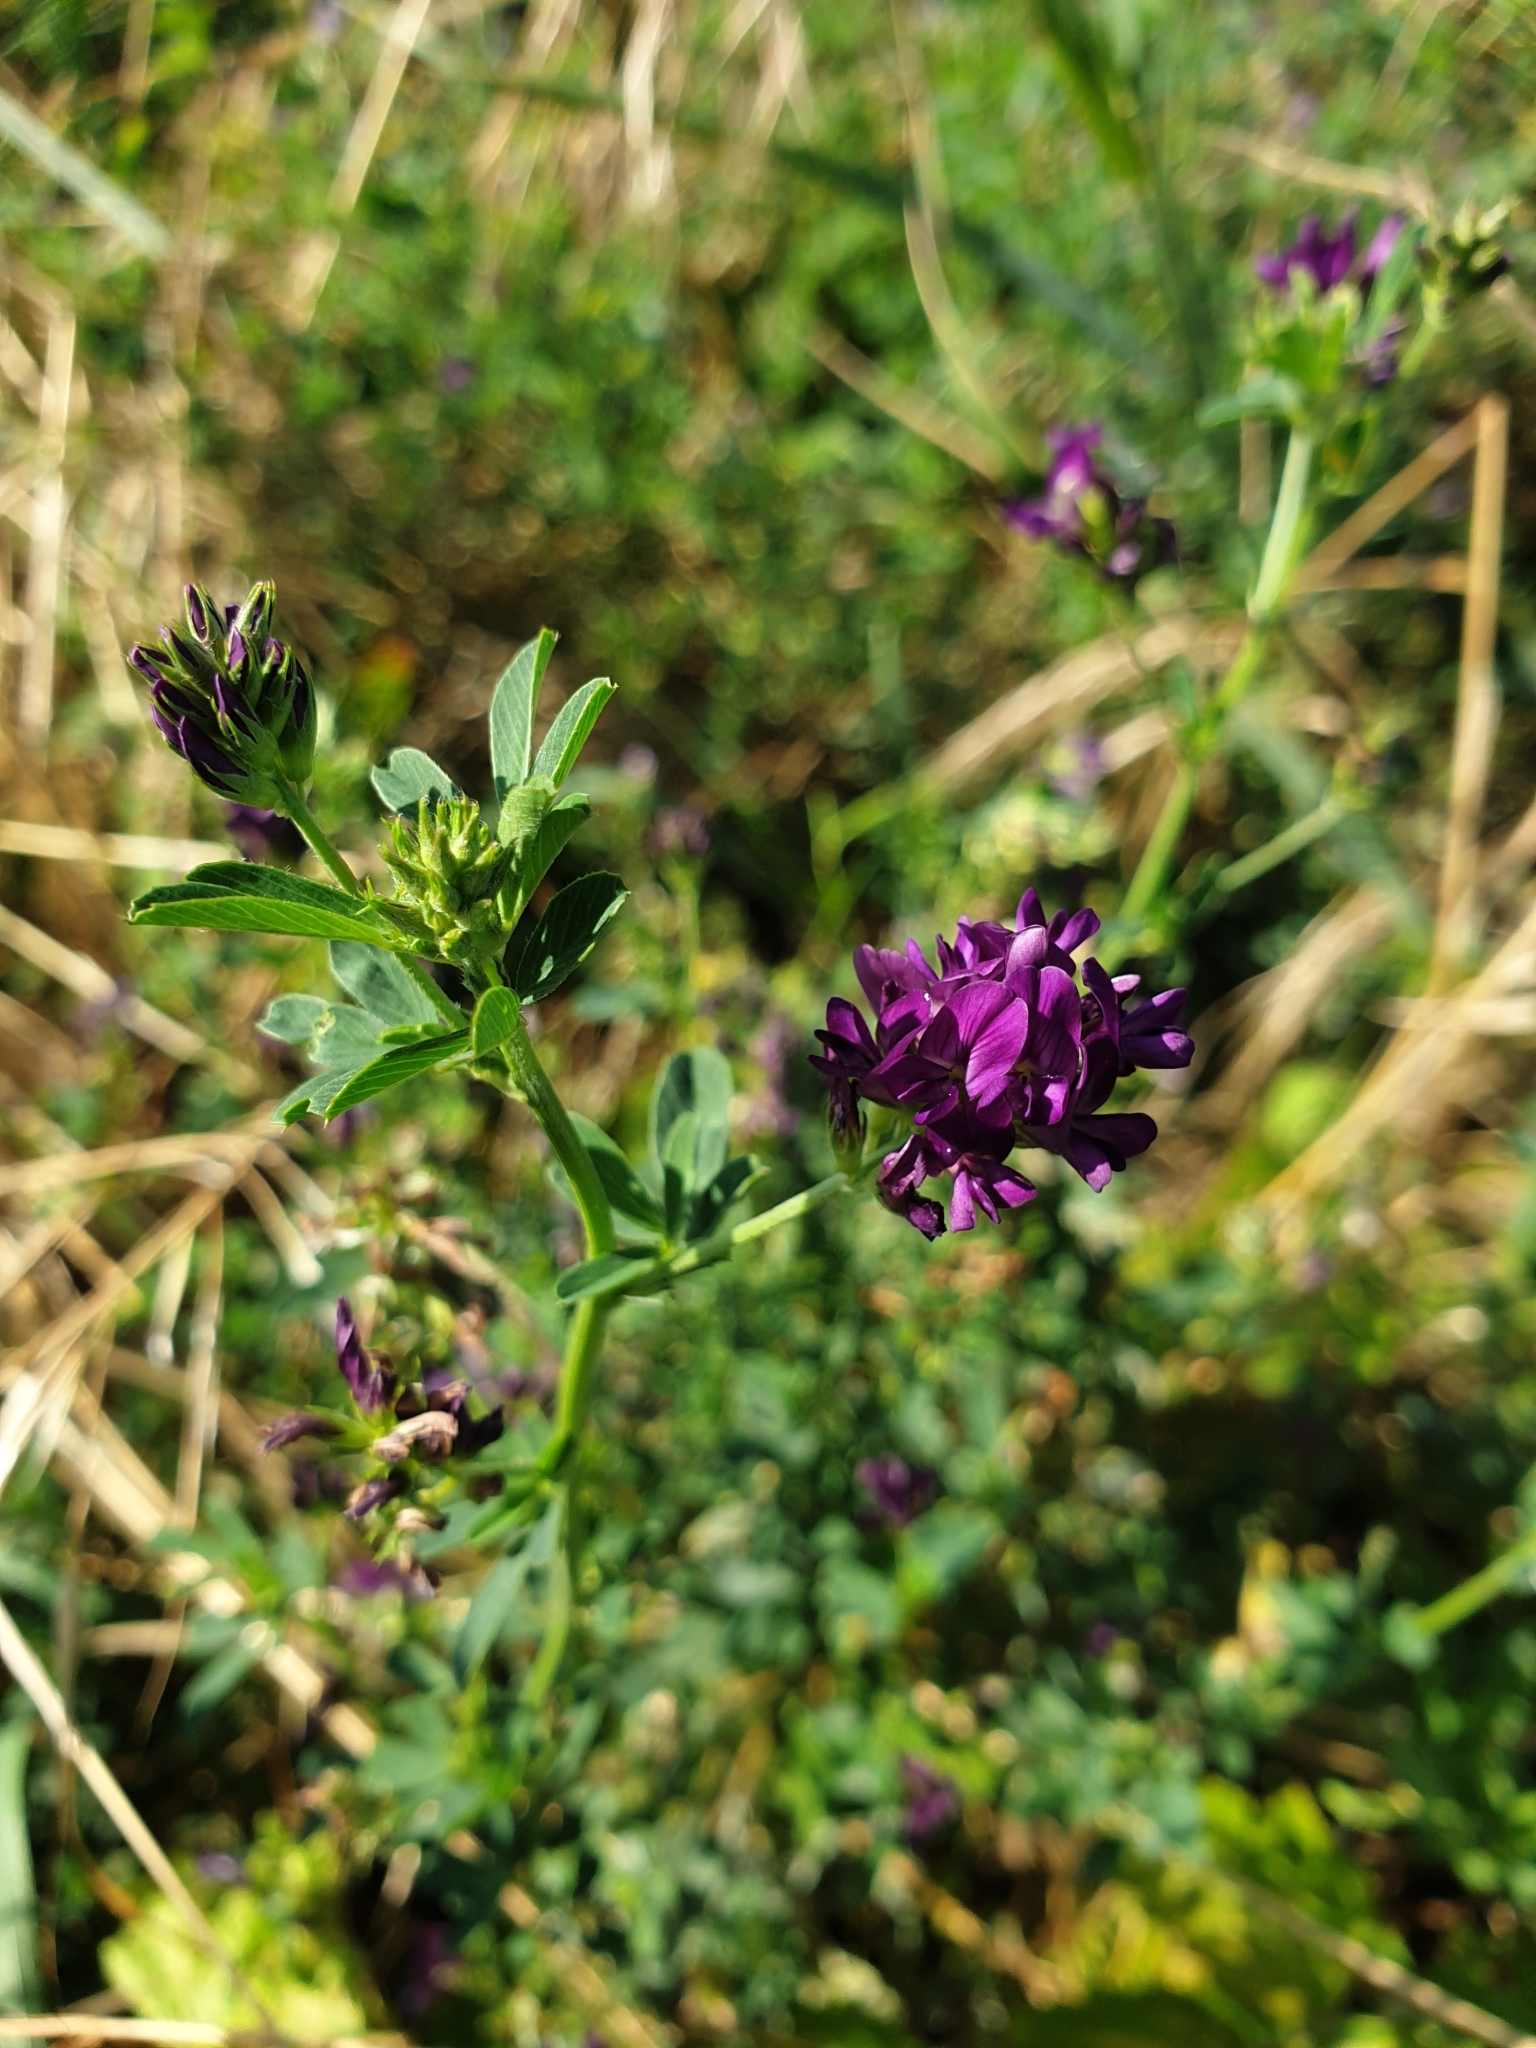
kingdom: Plantae
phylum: Tracheophyta
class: Magnoliopsida
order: Fabales
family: Fabaceae
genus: Medicago
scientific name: Medicago sativa
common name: Alfalfa
